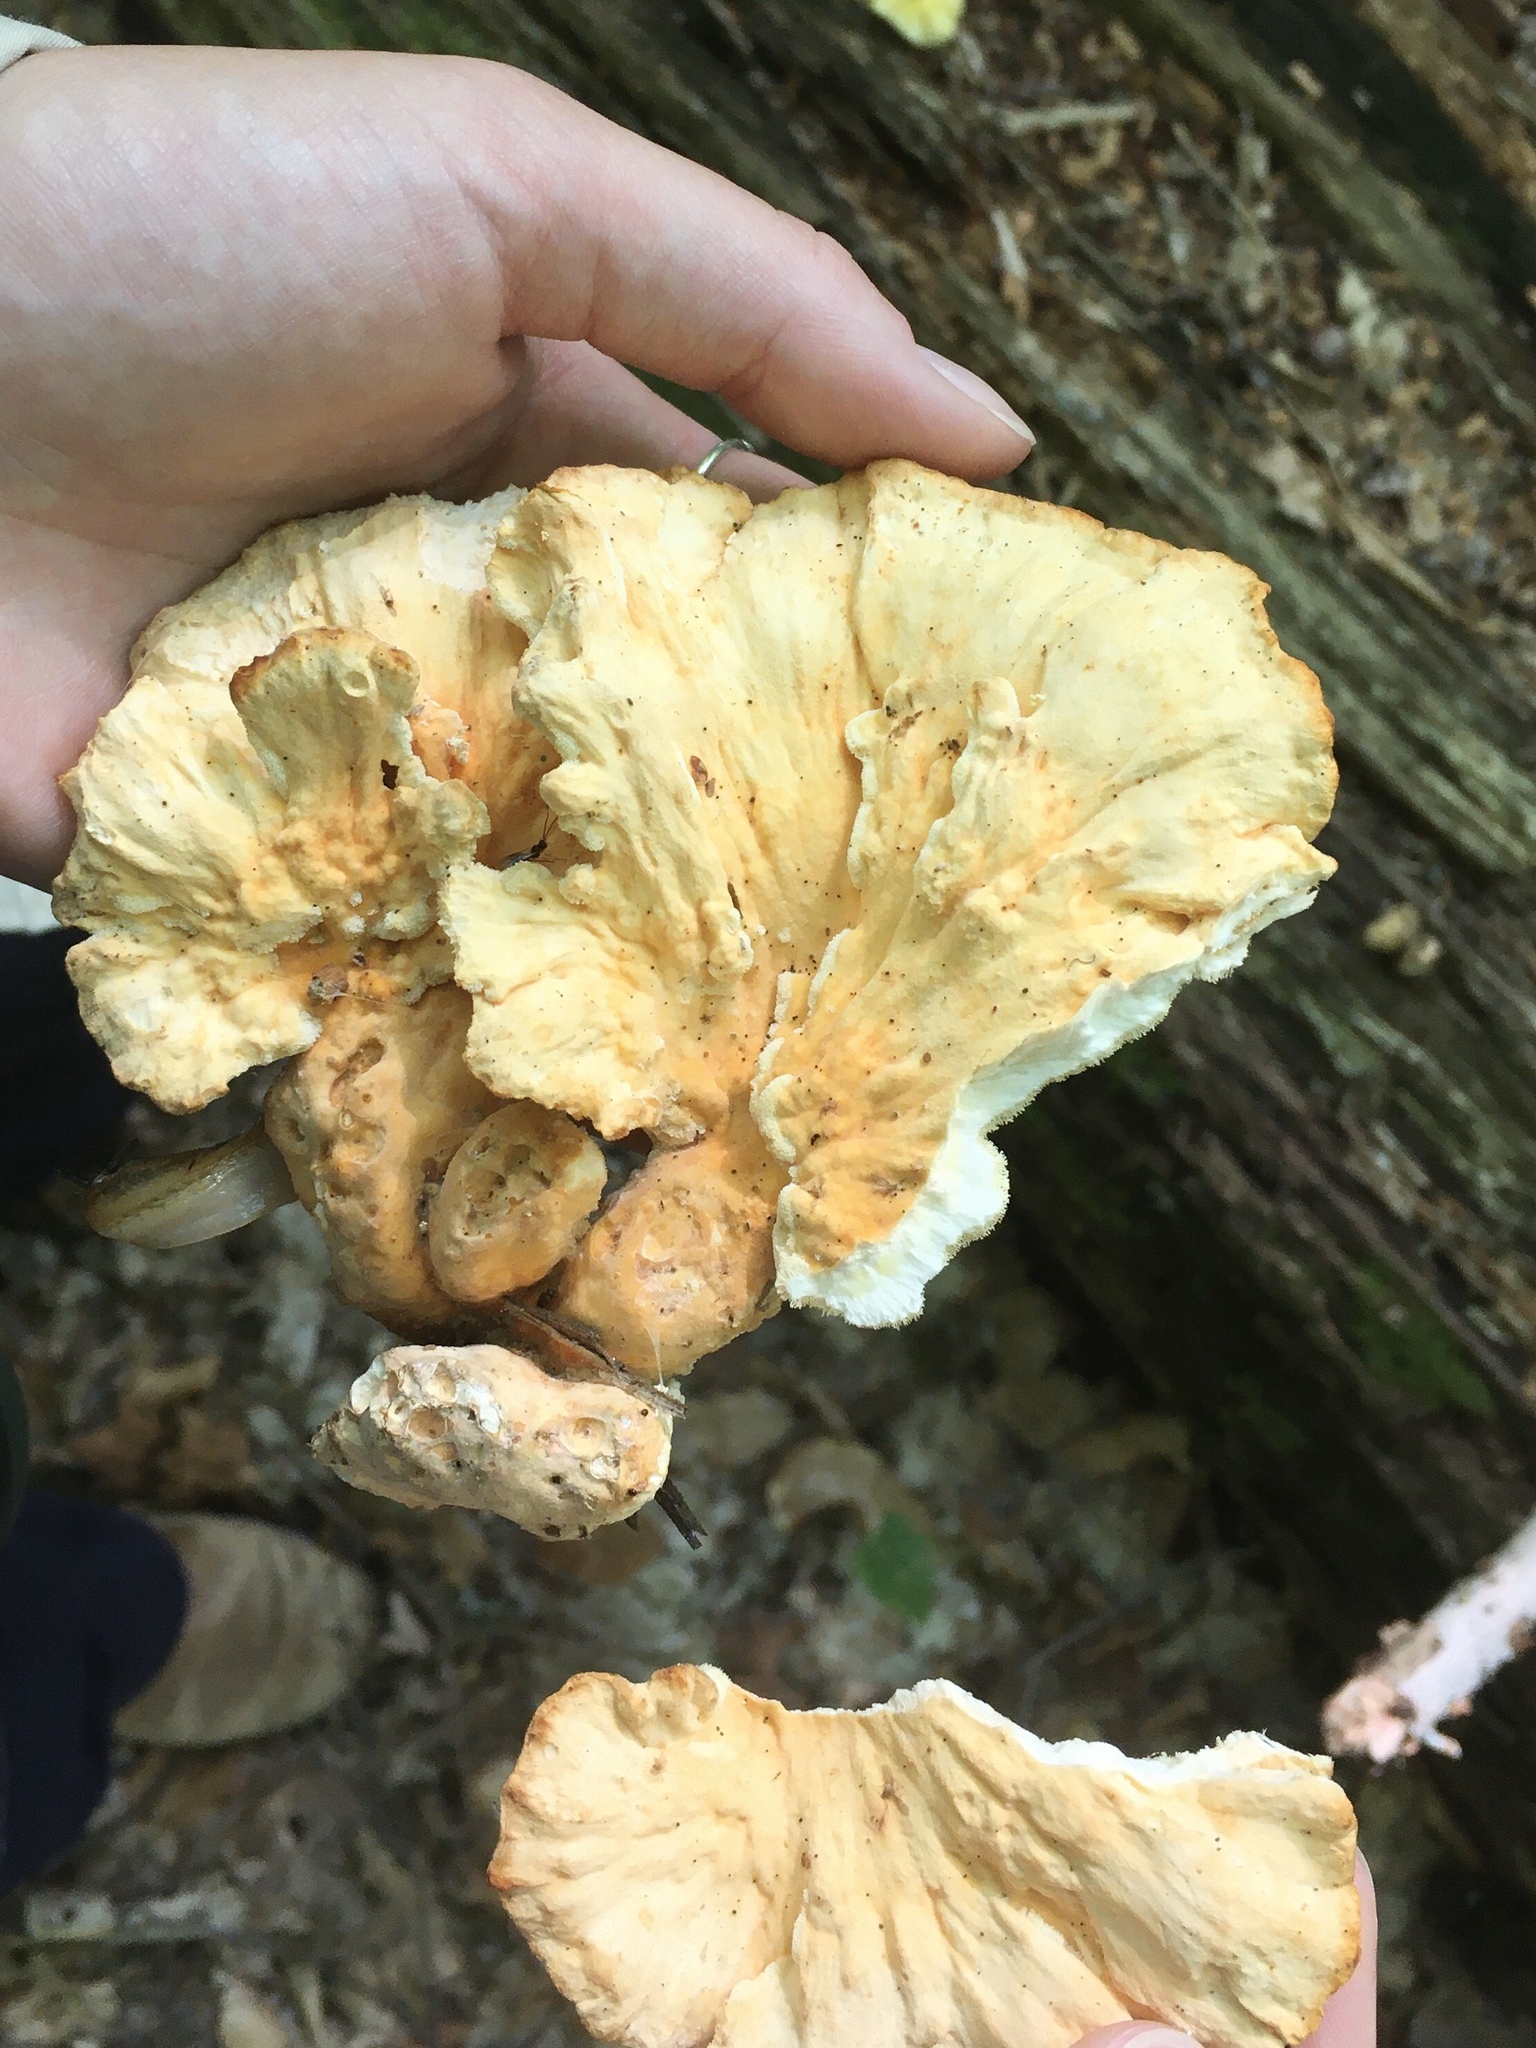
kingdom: Fungi
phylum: Basidiomycota
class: Agaricomycetes
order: Polyporales
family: Laetiporaceae
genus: Laetiporus
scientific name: Laetiporus sulphureus
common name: Chicken of the woods
